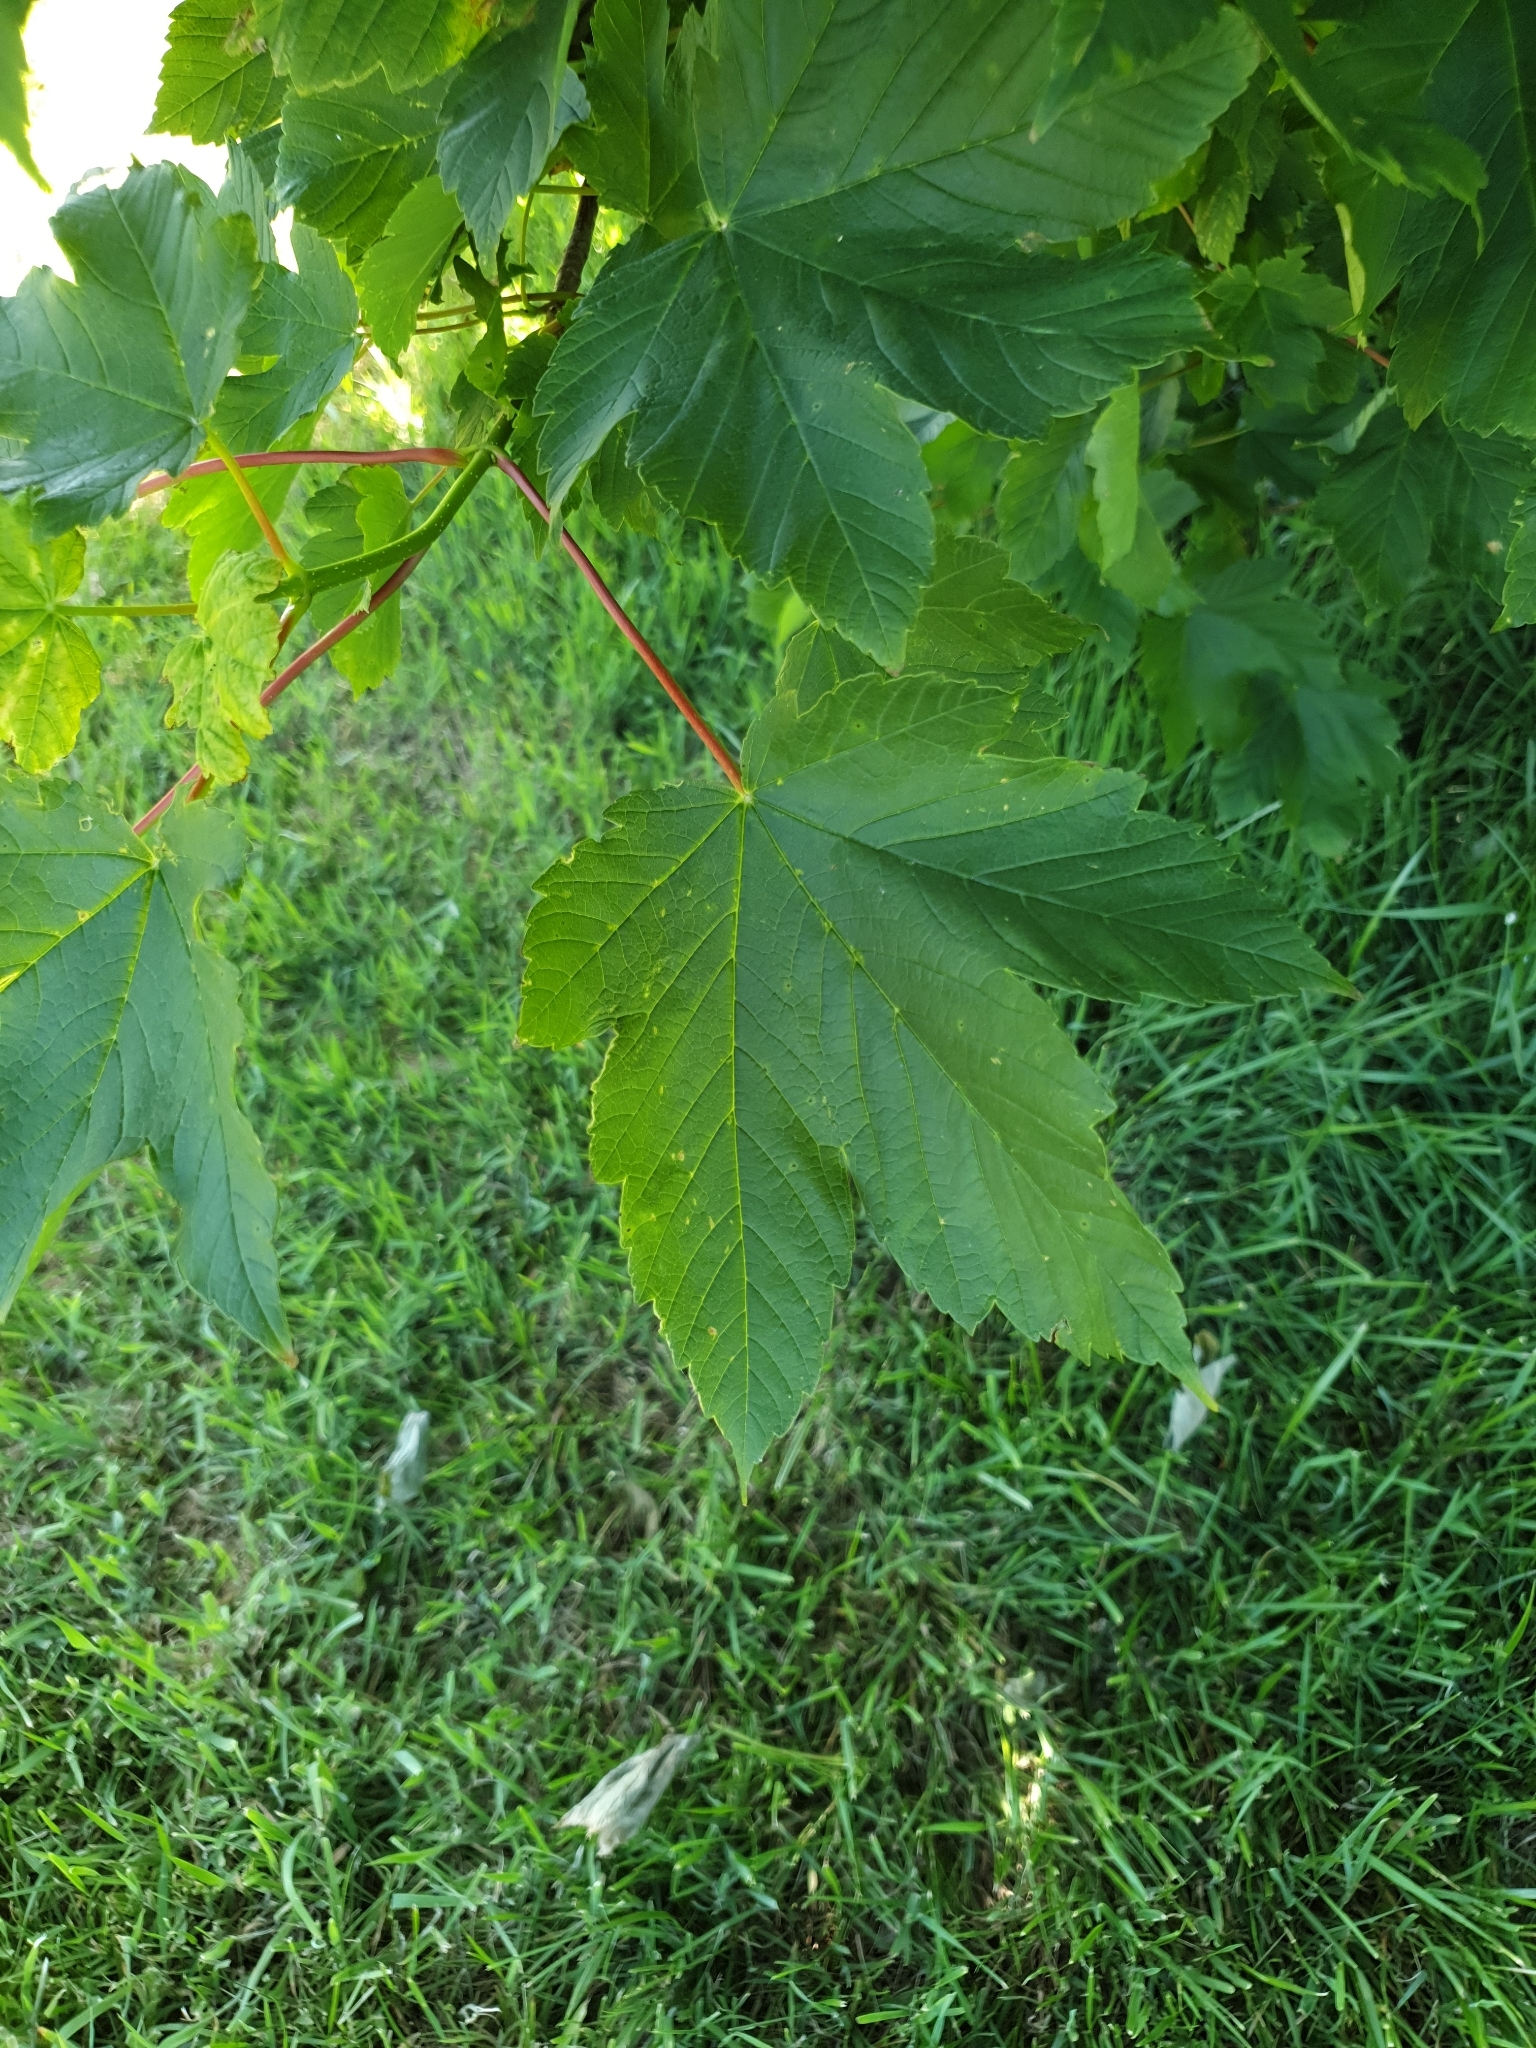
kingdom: Plantae
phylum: Tracheophyta
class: Magnoliopsida
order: Sapindales
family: Sapindaceae
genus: Acer
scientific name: Acer pseudoplatanus
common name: Sycamore
